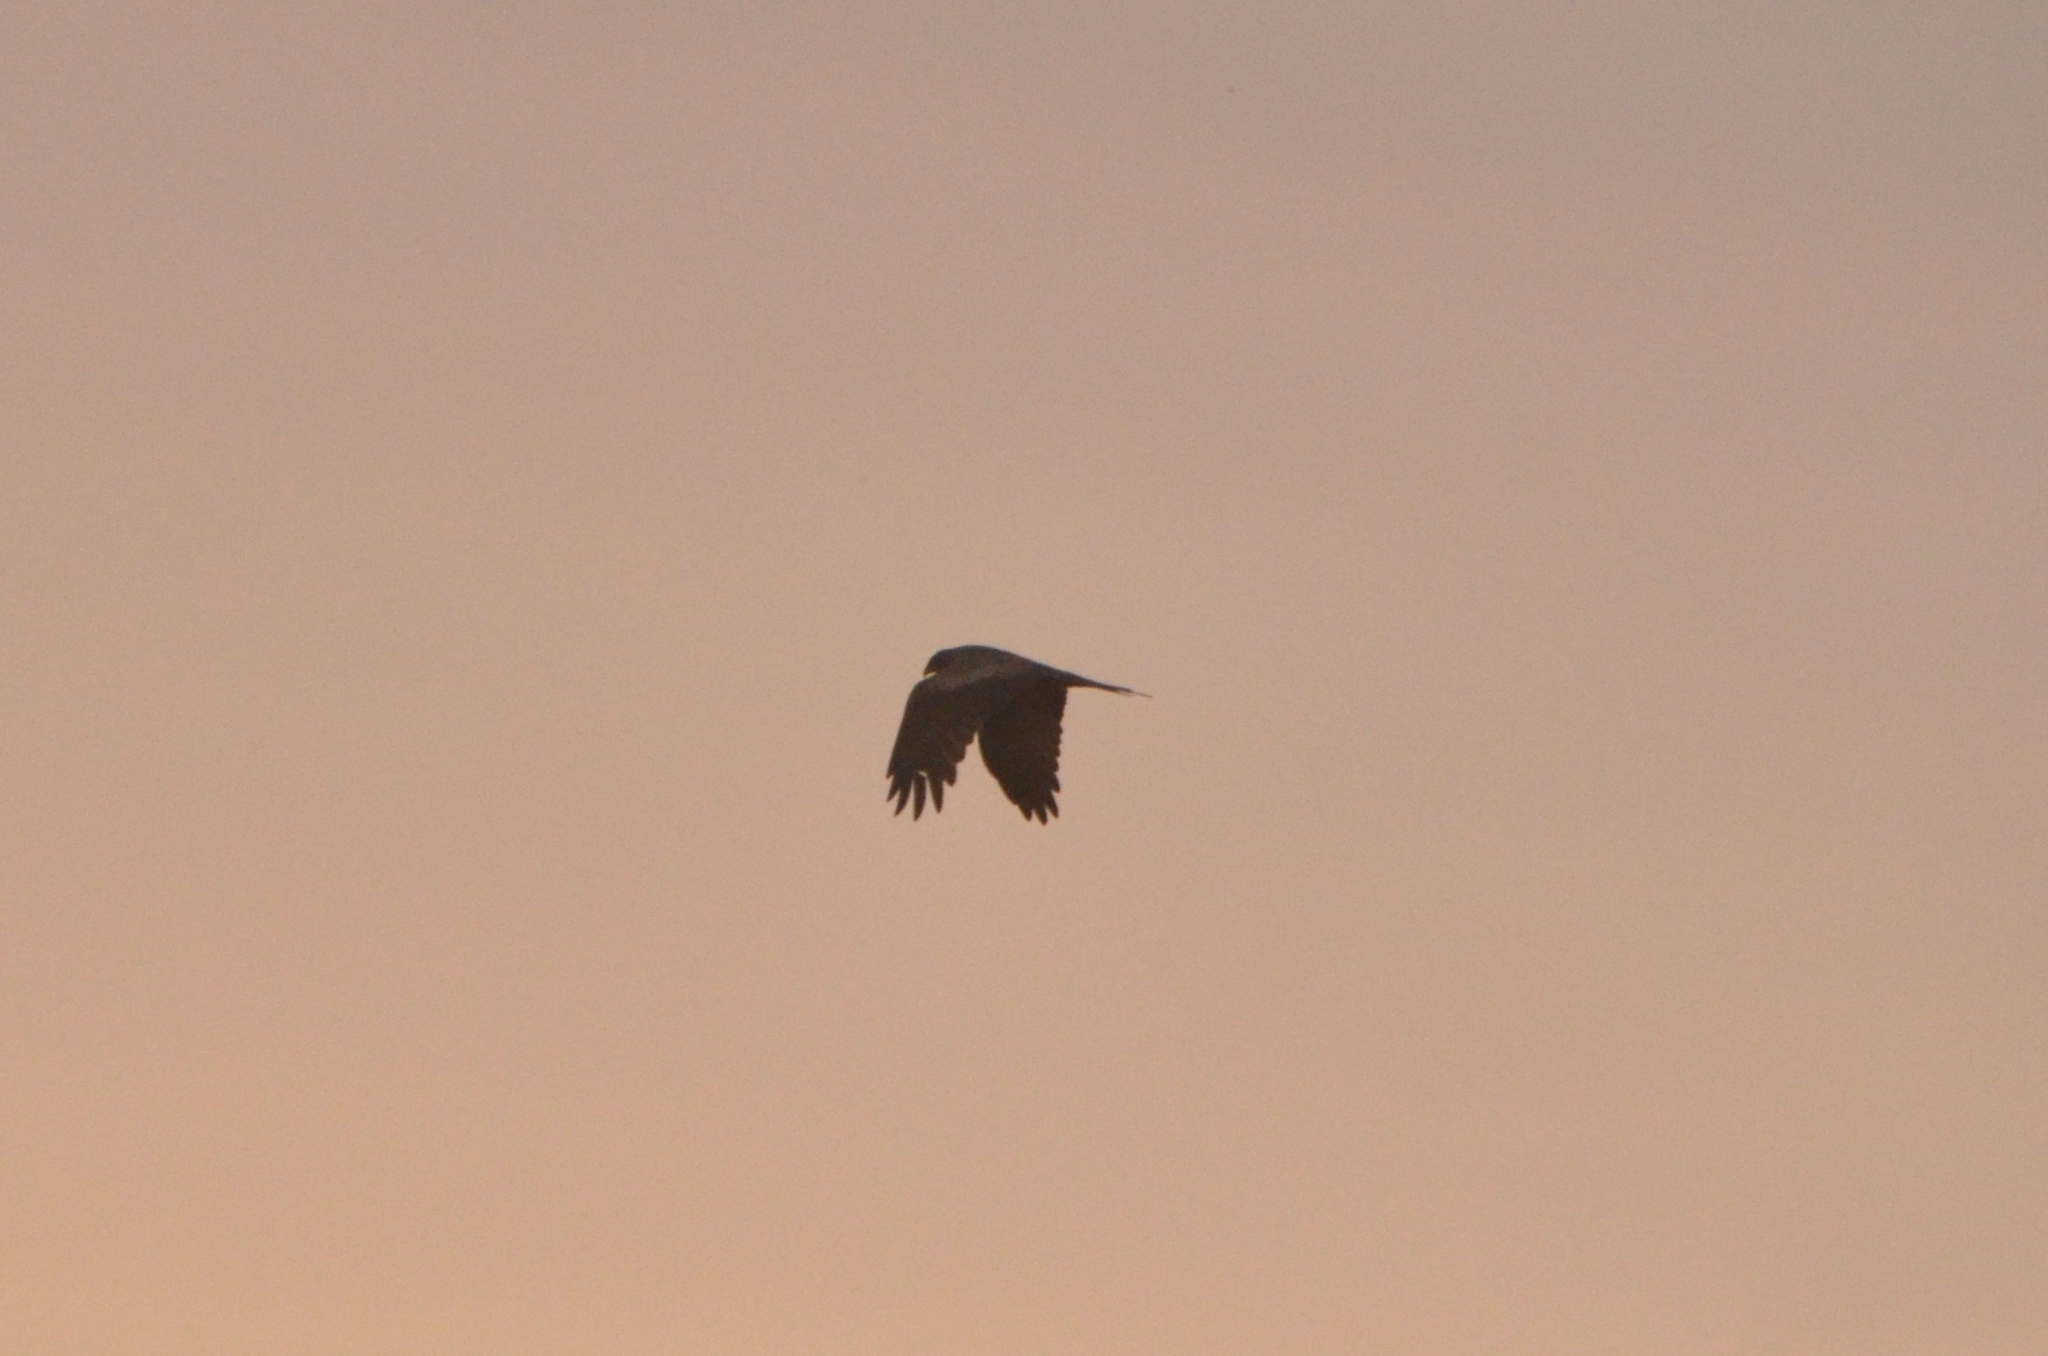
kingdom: Animalia
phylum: Chordata
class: Aves
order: Accipitriformes
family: Accipitridae
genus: Milvus
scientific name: Milvus migrans
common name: Black kite
